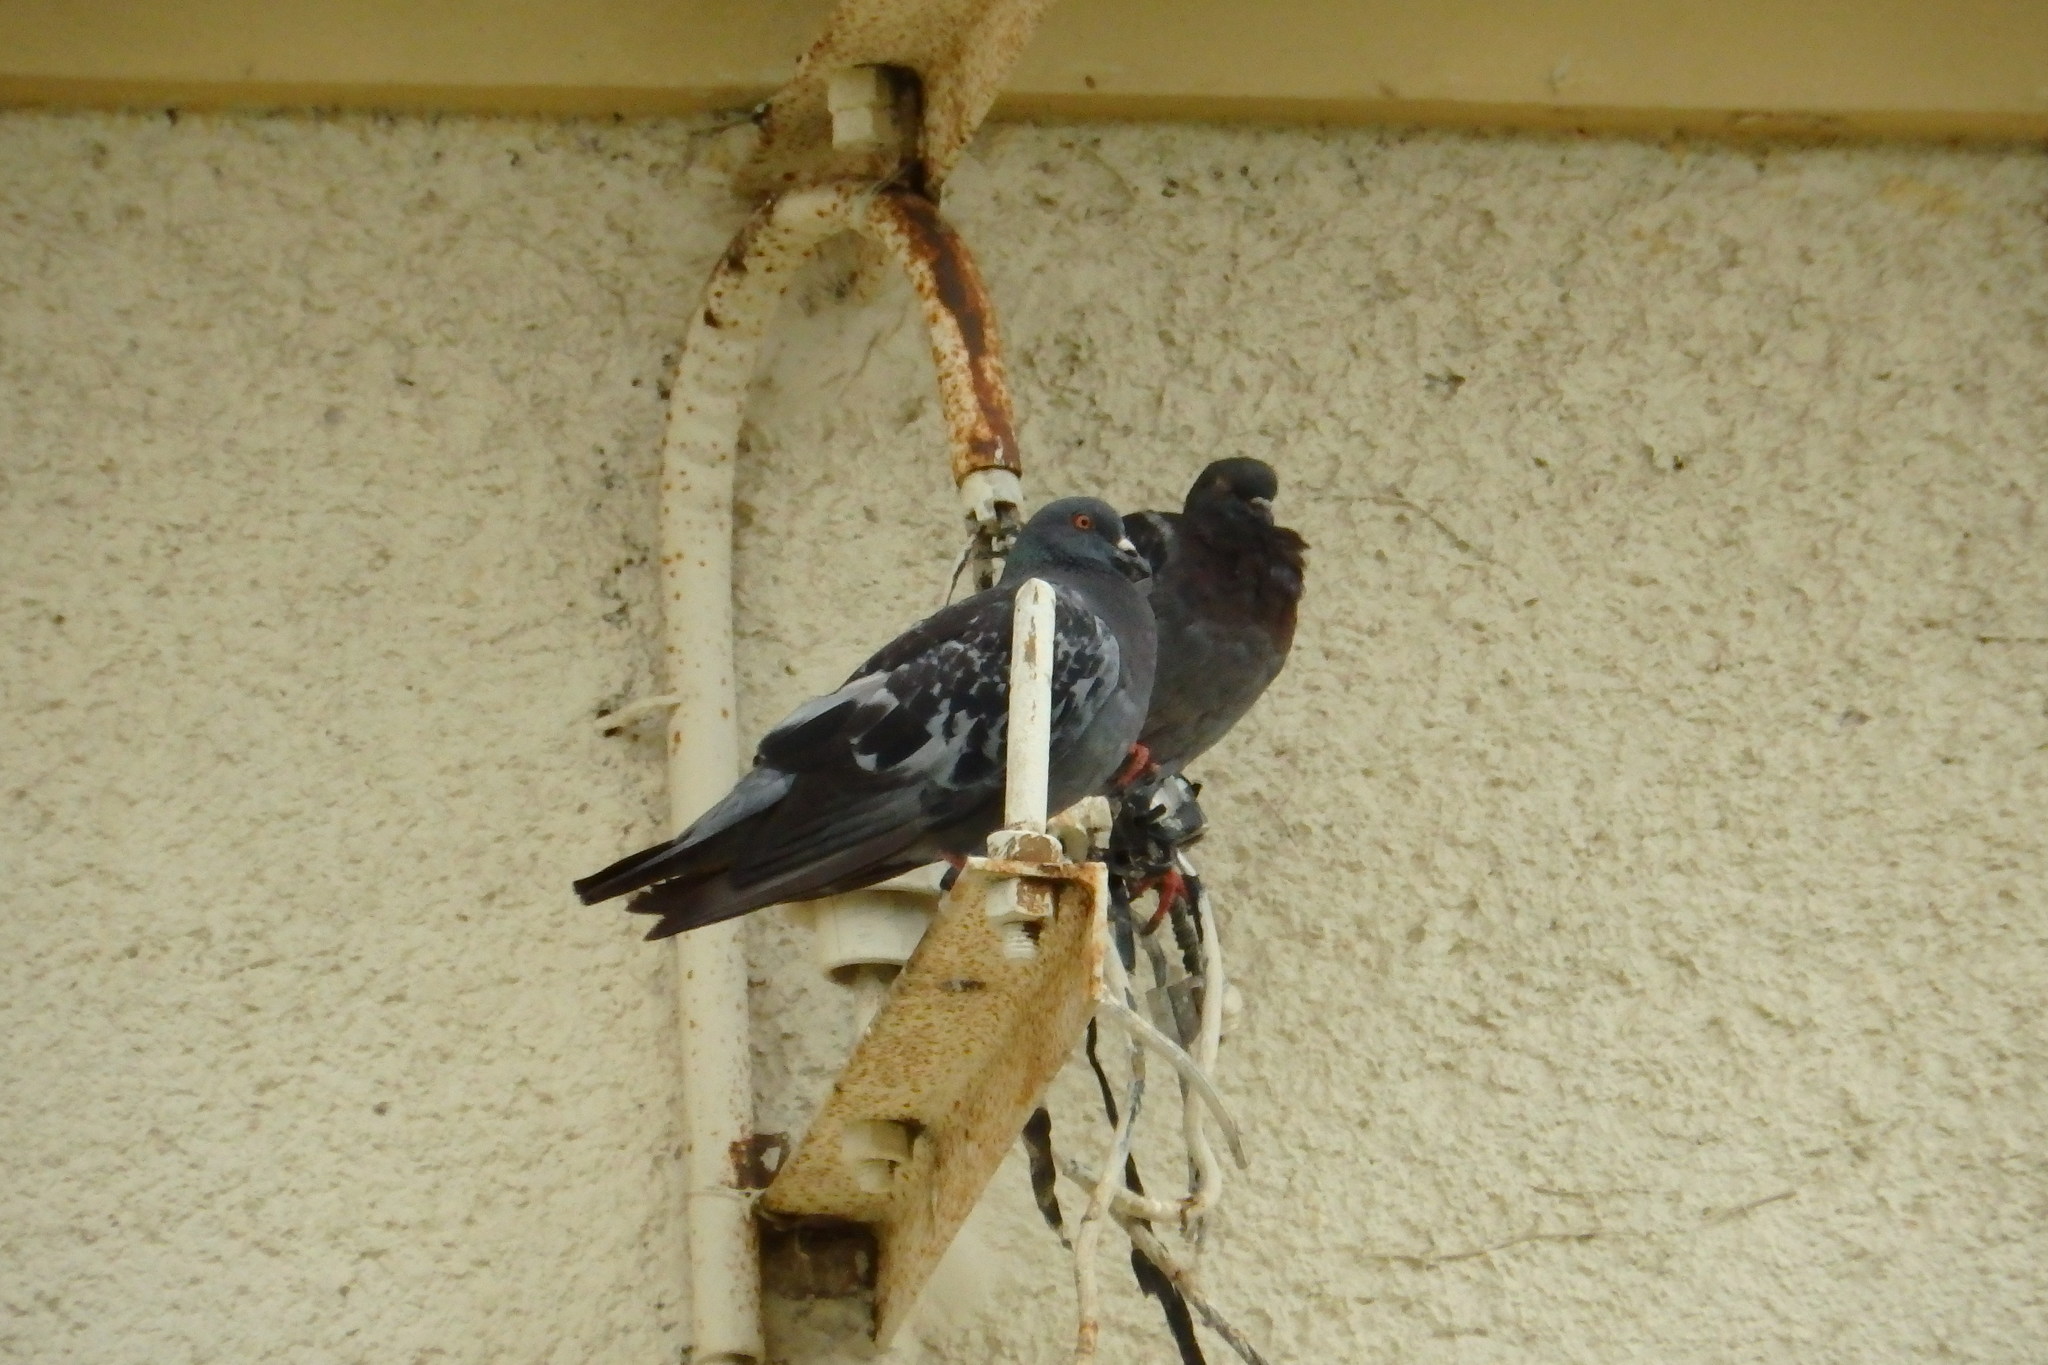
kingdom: Animalia
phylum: Chordata
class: Aves
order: Columbiformes
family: Columbidae
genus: Columba
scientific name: Columba livia
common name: Rock pigeon
